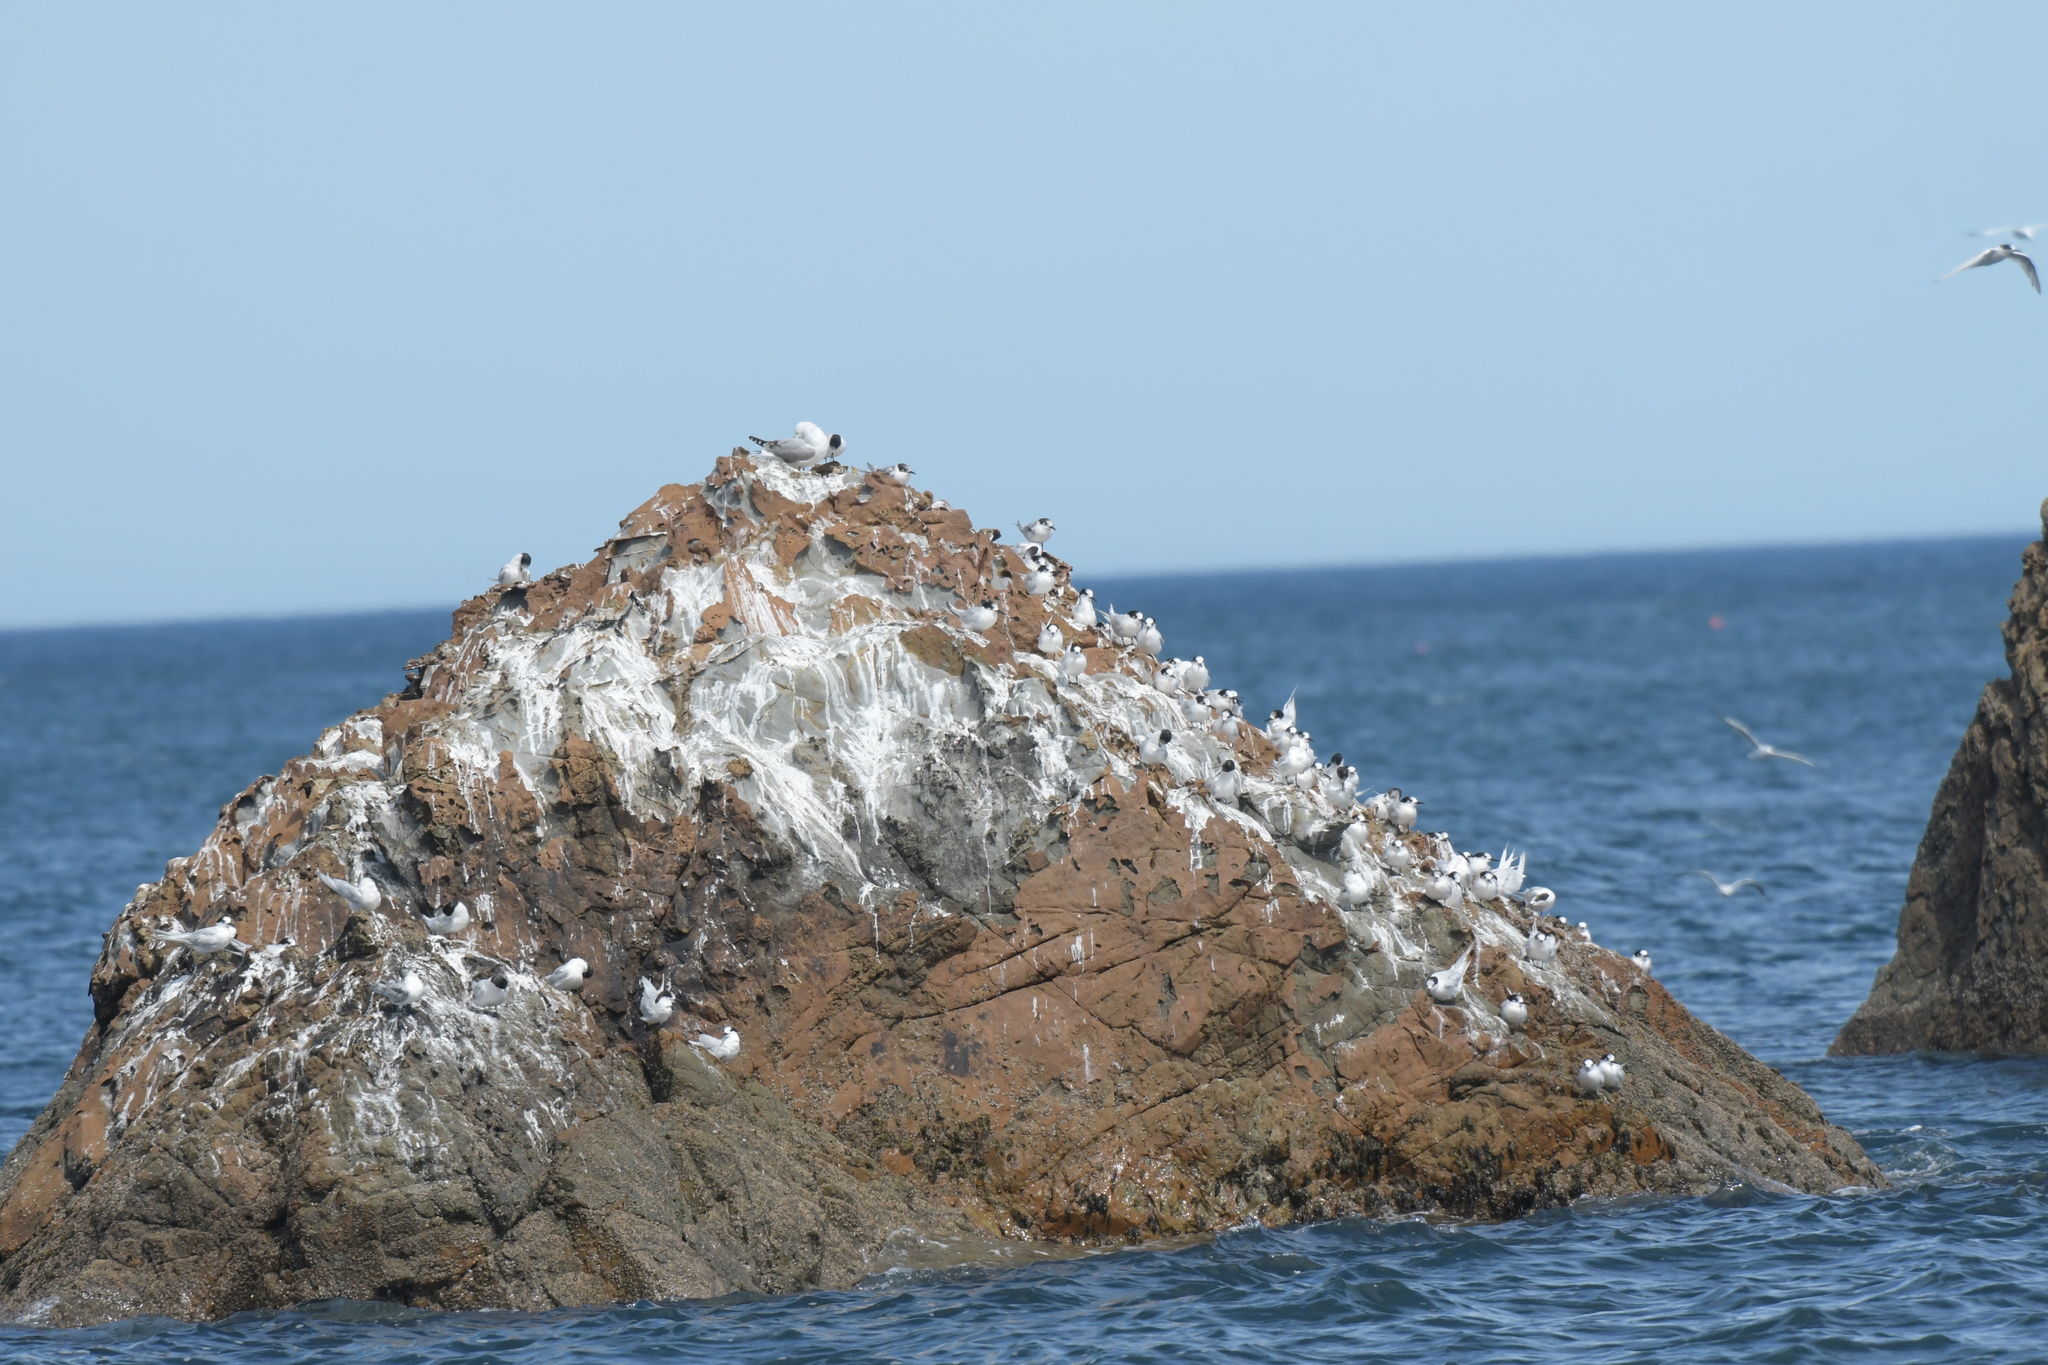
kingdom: Animalia
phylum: Chordata
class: Aves
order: Charadriiformes
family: Laridae
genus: Sterna
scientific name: Sterna striata
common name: White-fronted tern
